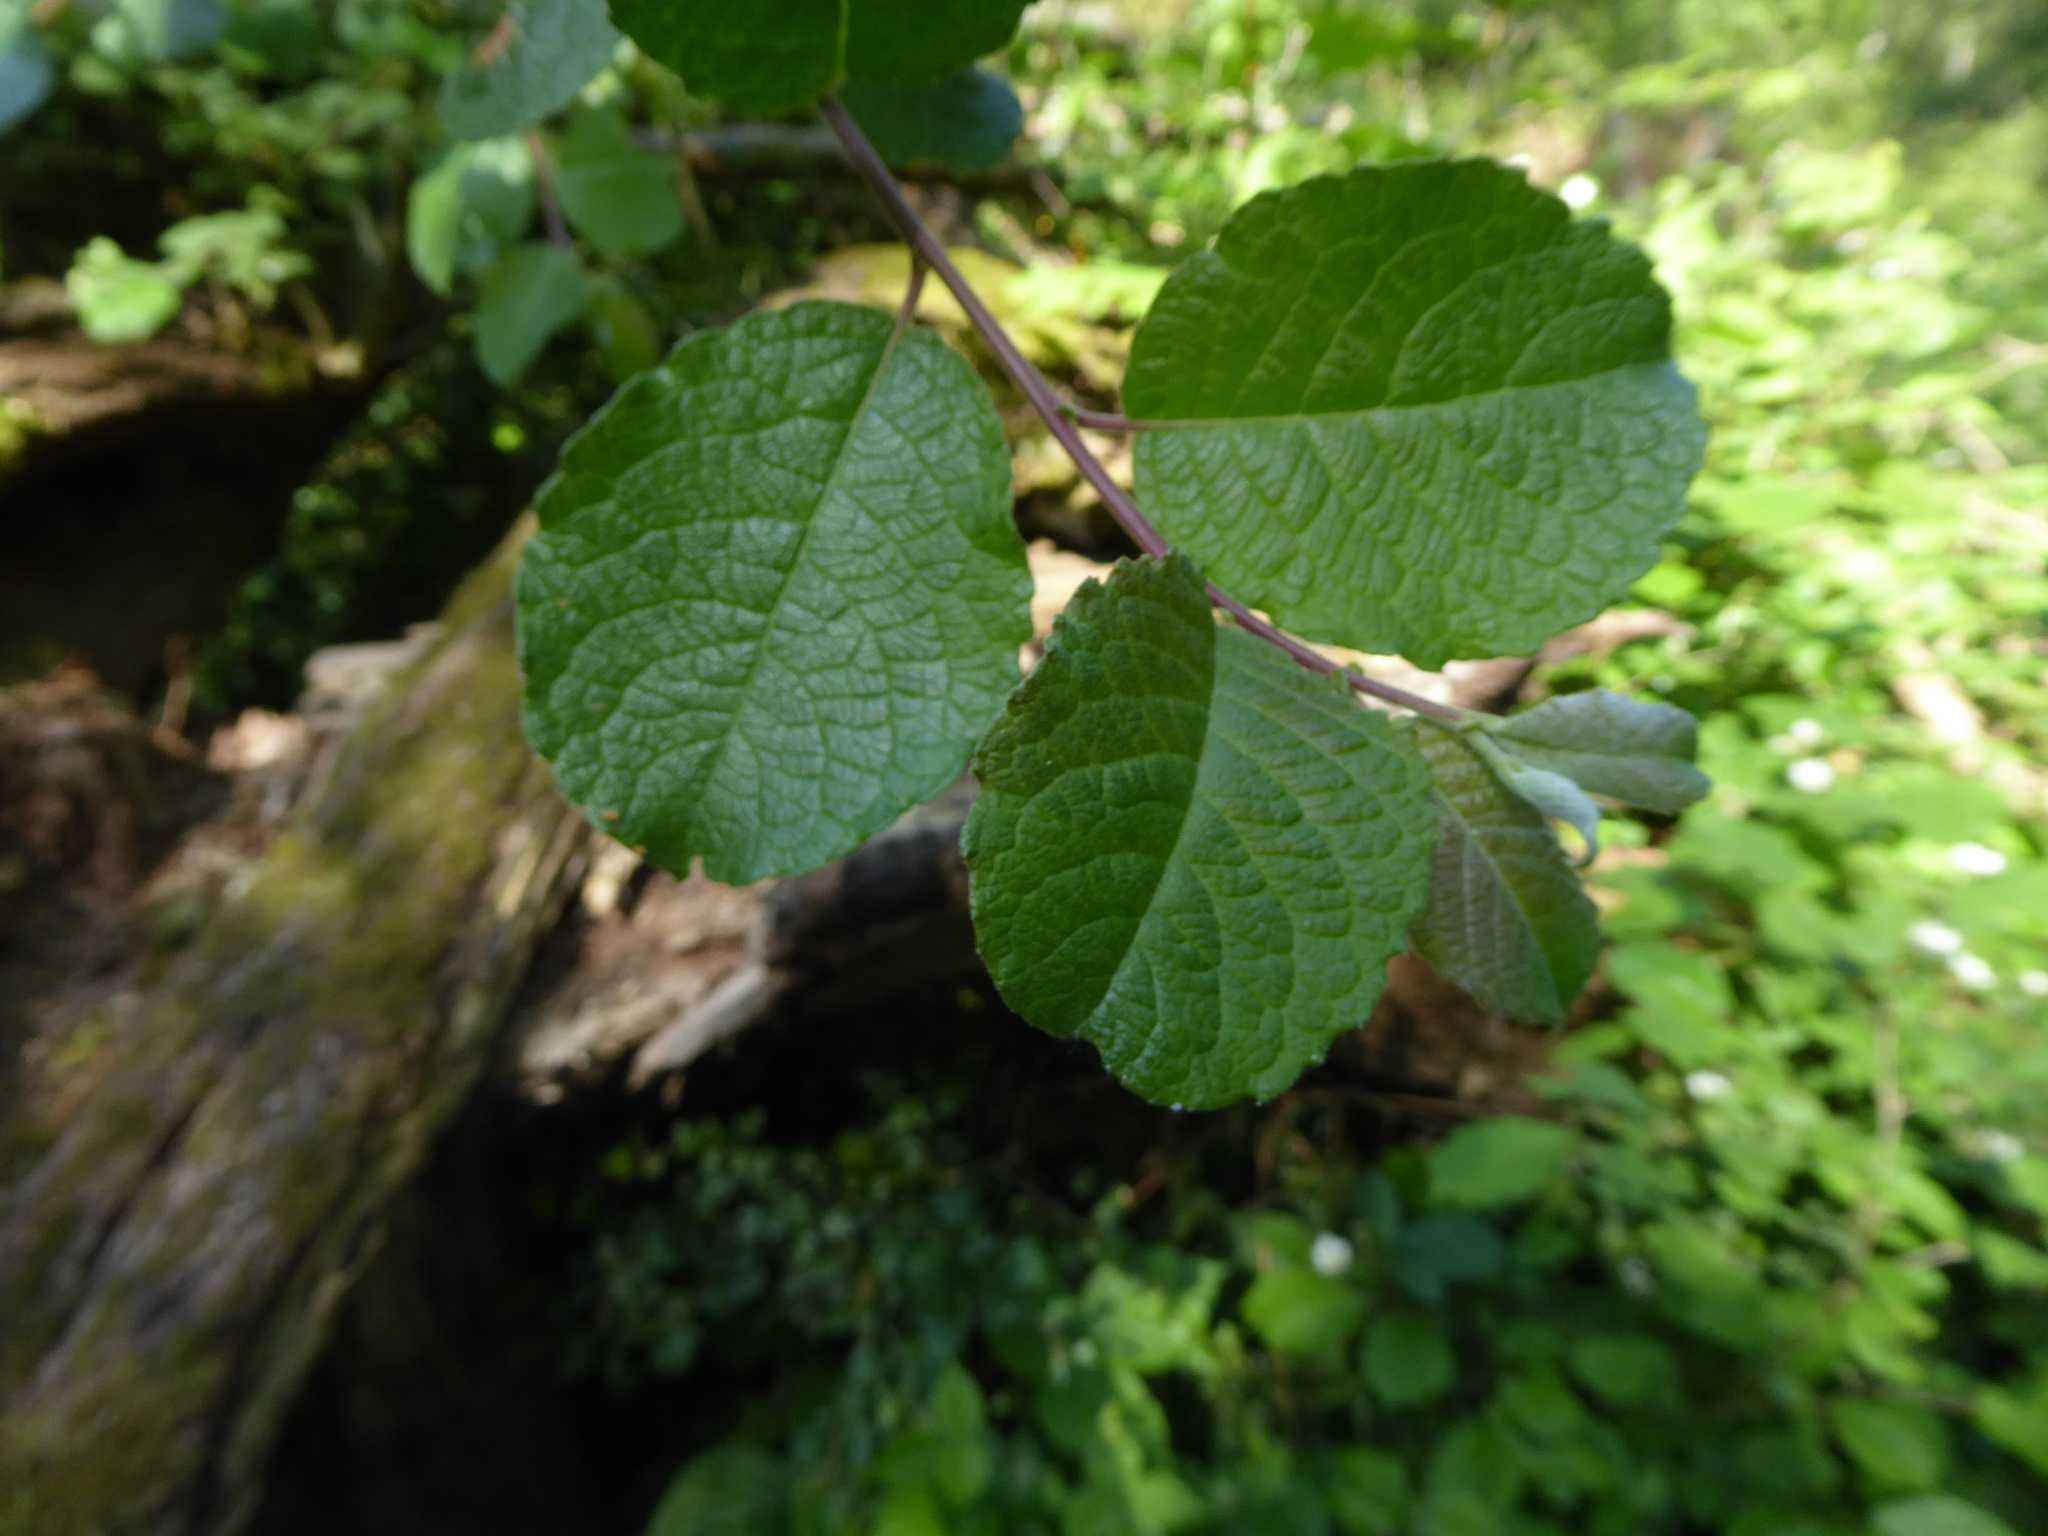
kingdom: Plantae
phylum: Tracheophyta
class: Magnoliopsida
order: Malpighiales
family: Salicaceae
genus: Salix
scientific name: Salix caprea
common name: Goat willow
